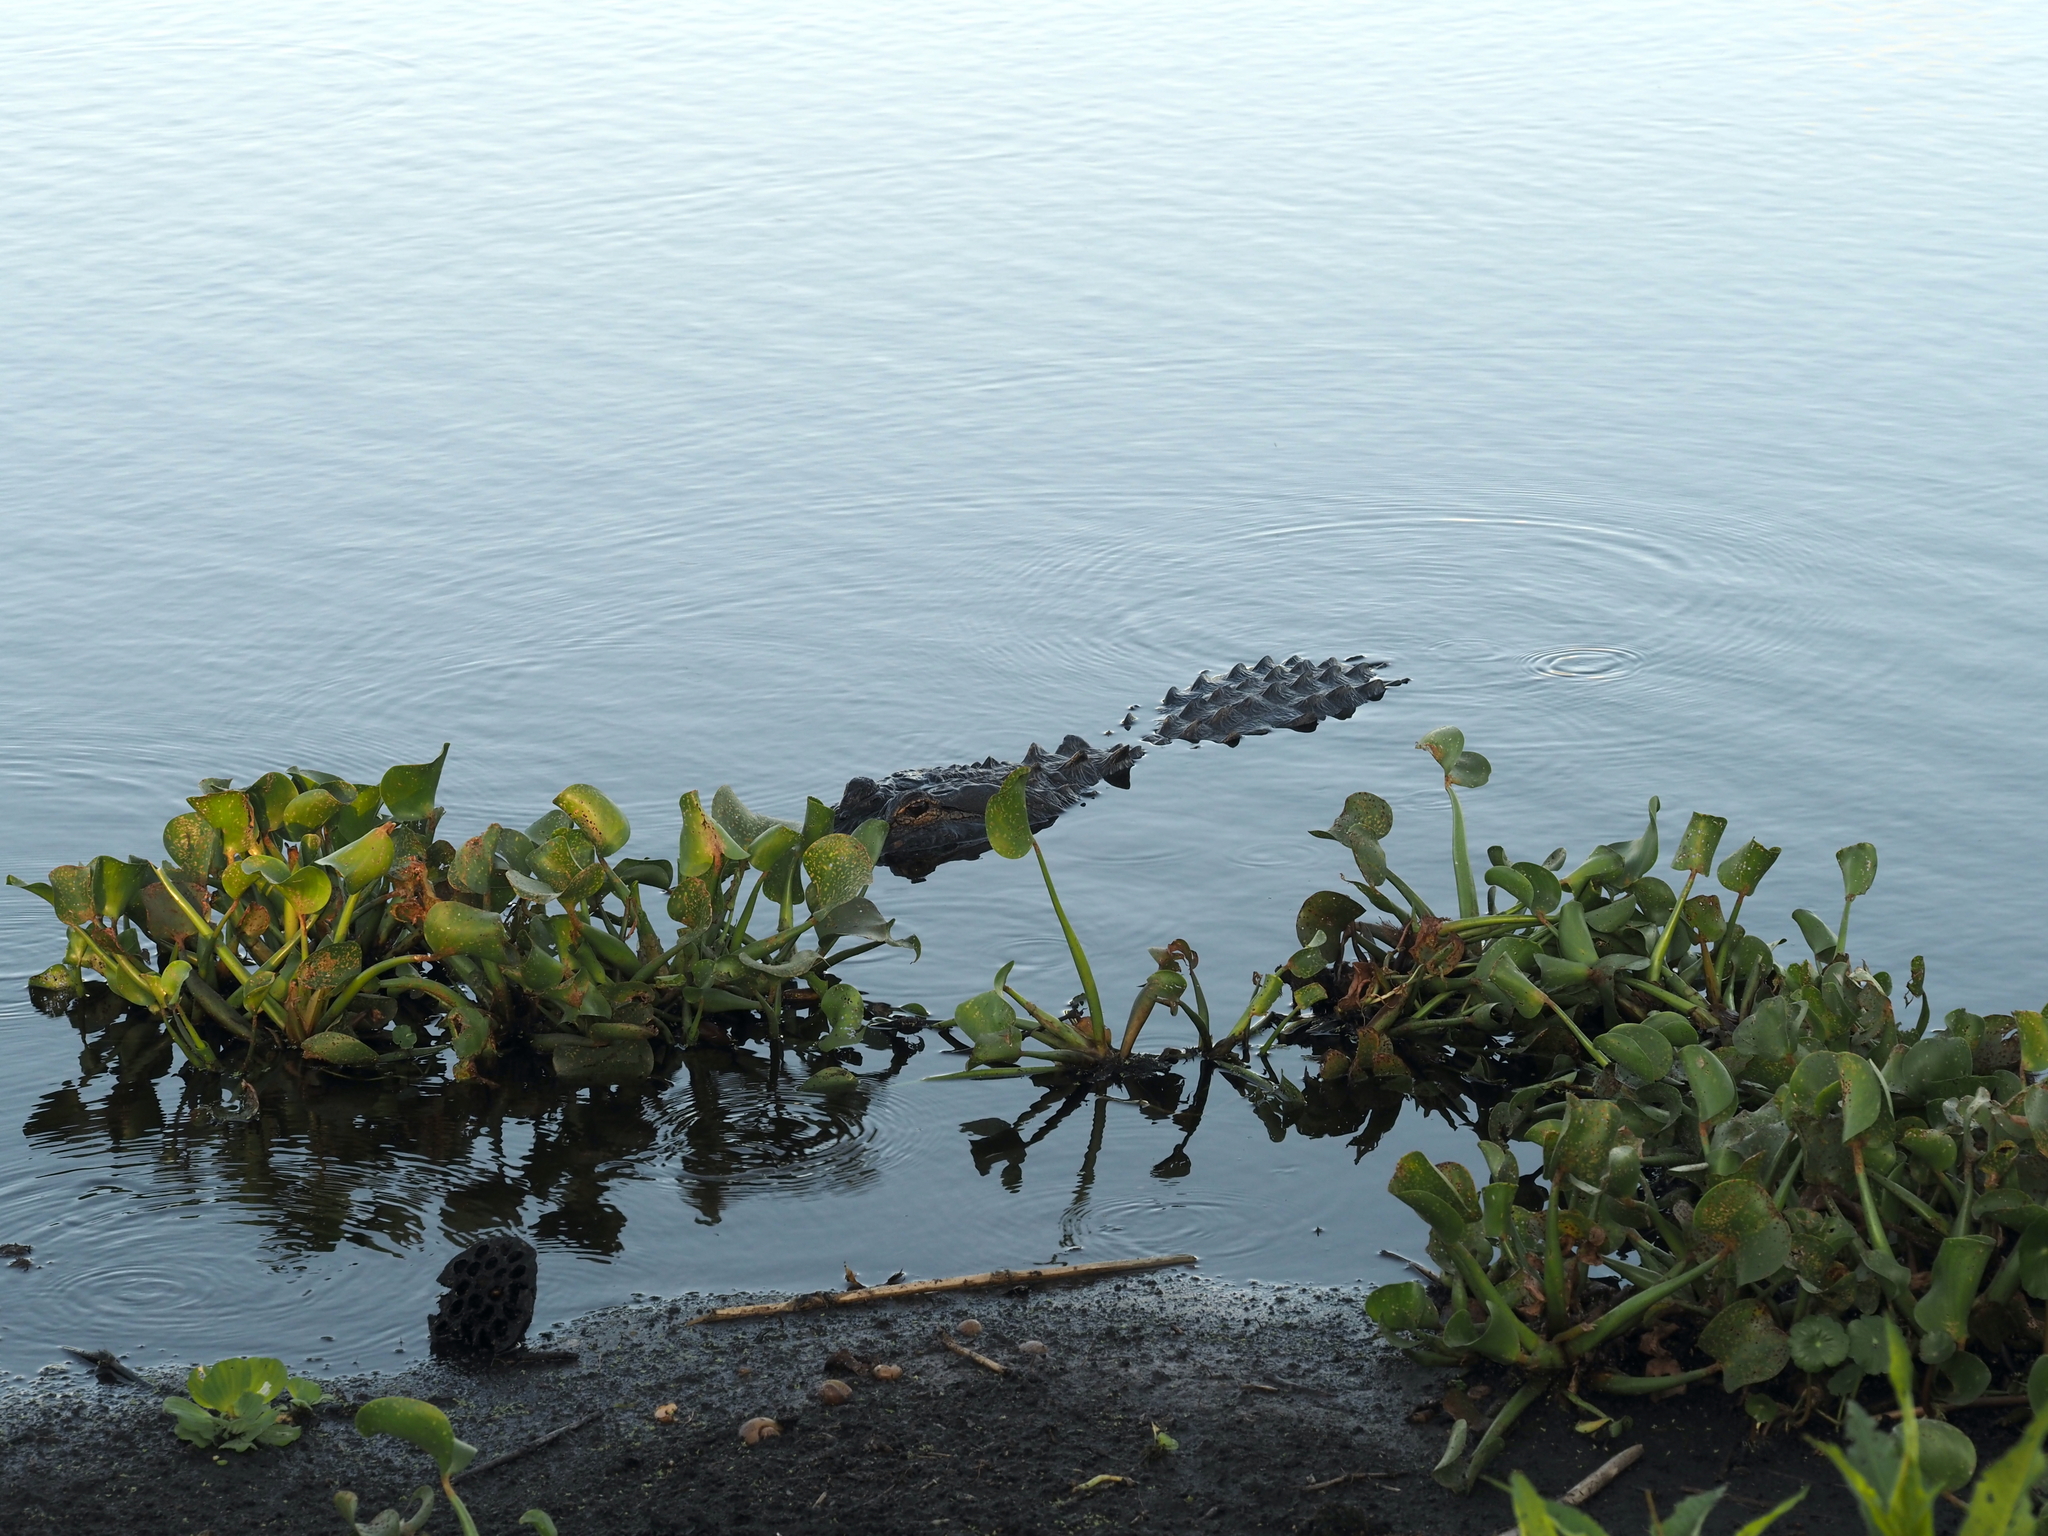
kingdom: Animalia
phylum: Chordata
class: Crocodylia
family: Alligatoridae
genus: Alligator
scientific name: Alligator mississippiensis
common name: American alligator
